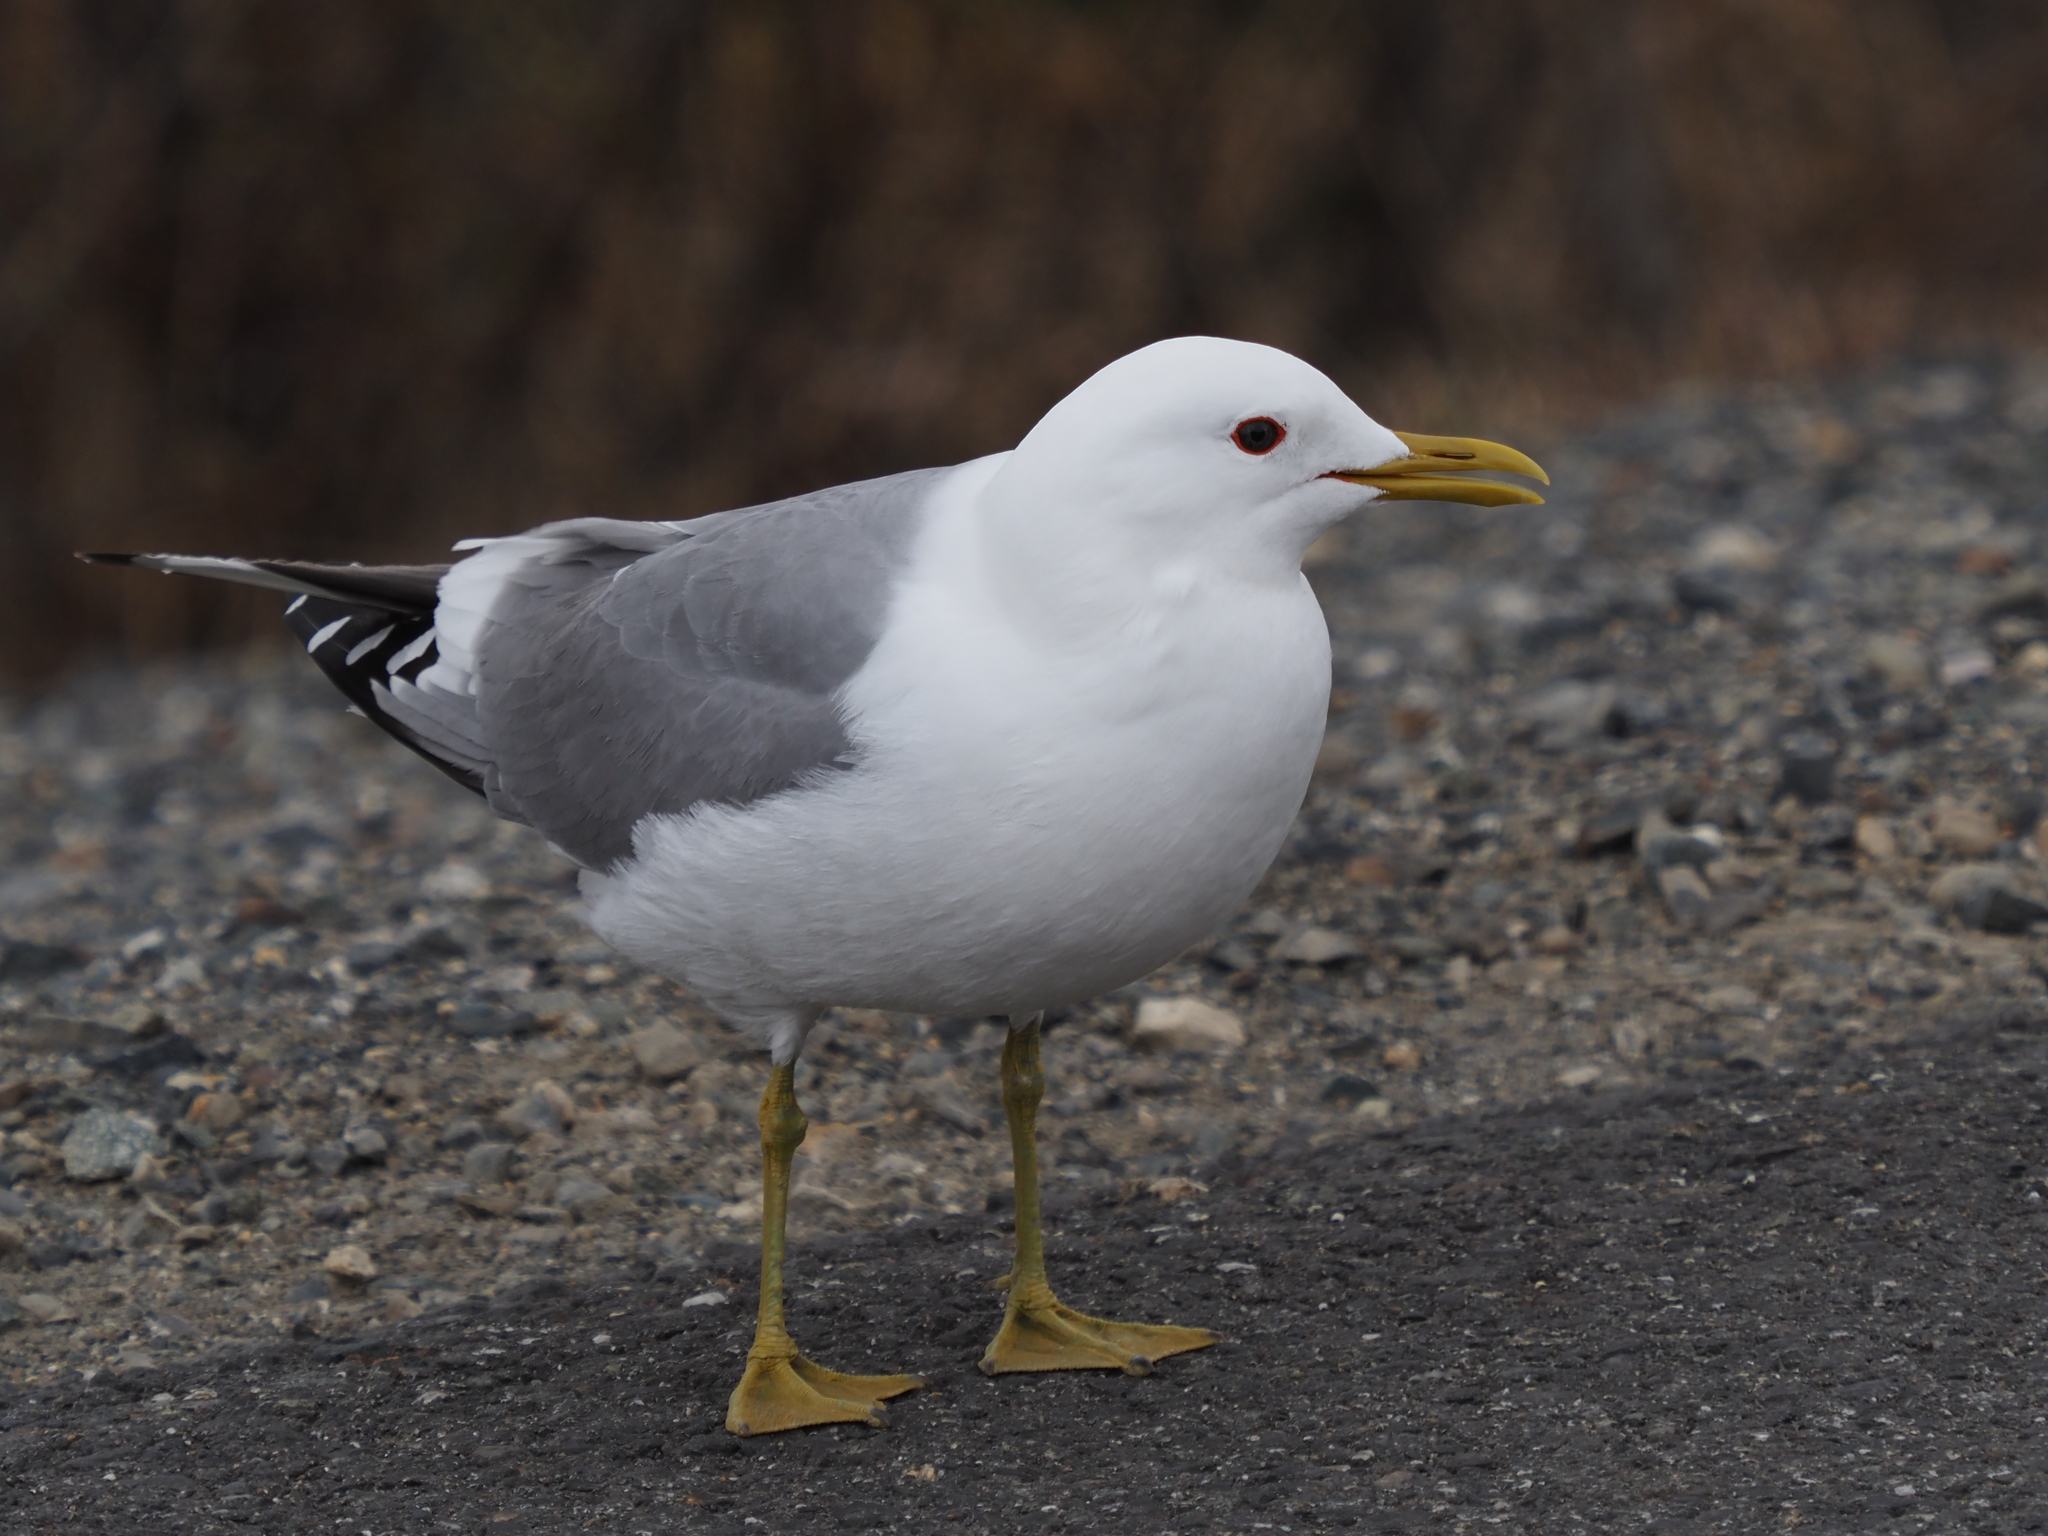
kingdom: Animalia
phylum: Chordata
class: Aves
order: Charadriiformes
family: Laridae
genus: Larus
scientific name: Larus brachyrhynchus
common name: Short-billed gull
